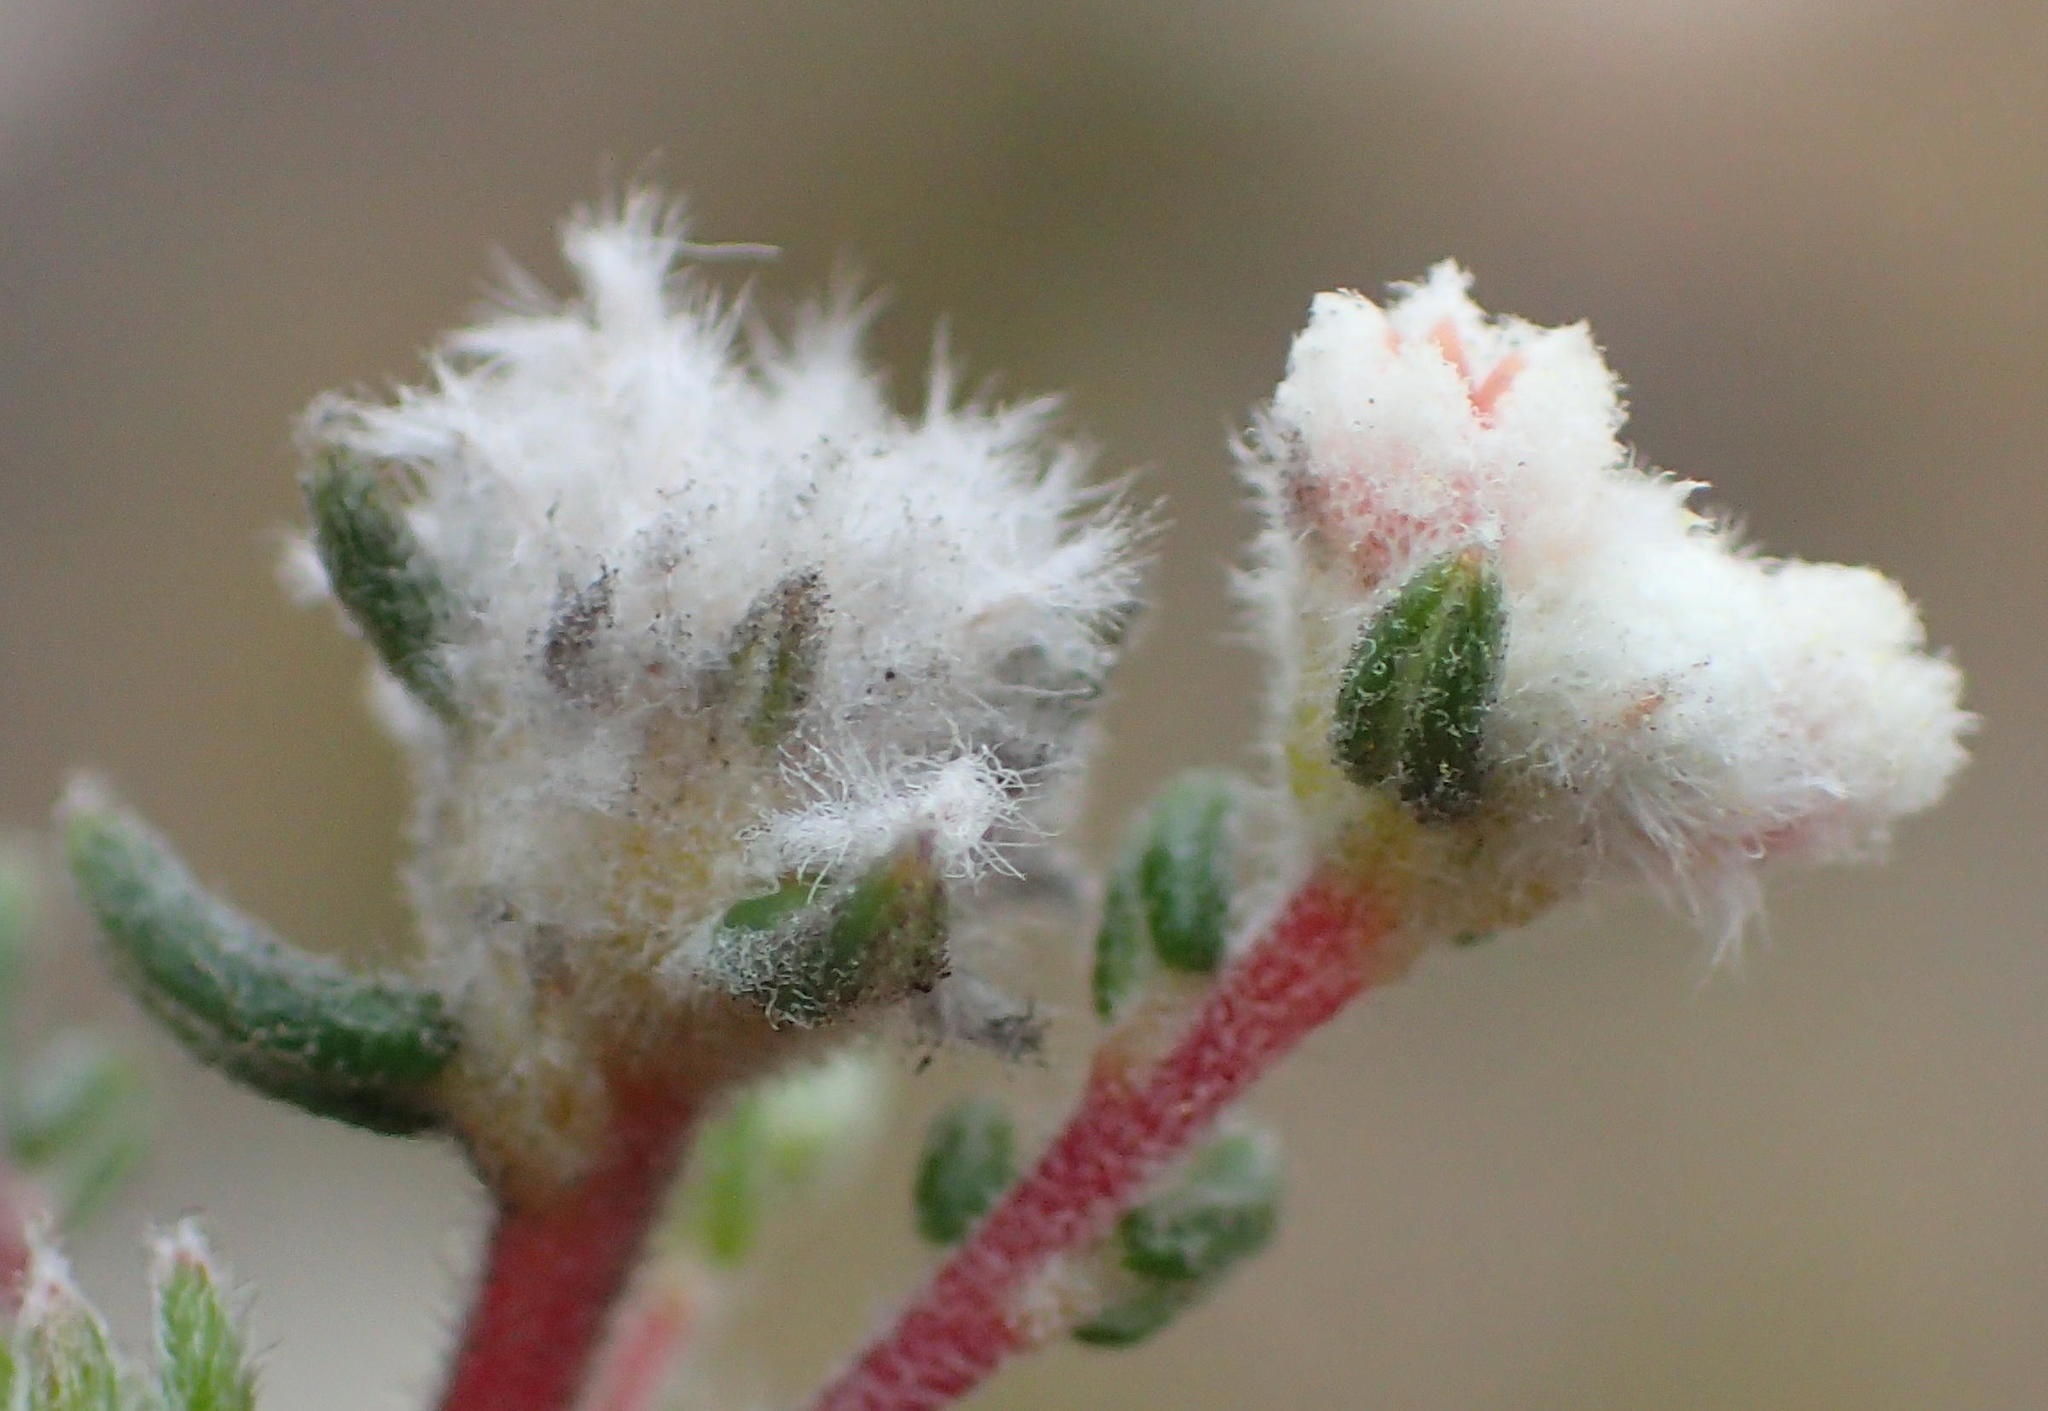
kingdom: Plantae
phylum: Tracheophyta
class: Magnoliopsida
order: Rosales
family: Rhamnaceae
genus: Phylica
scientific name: Phylica karroica
